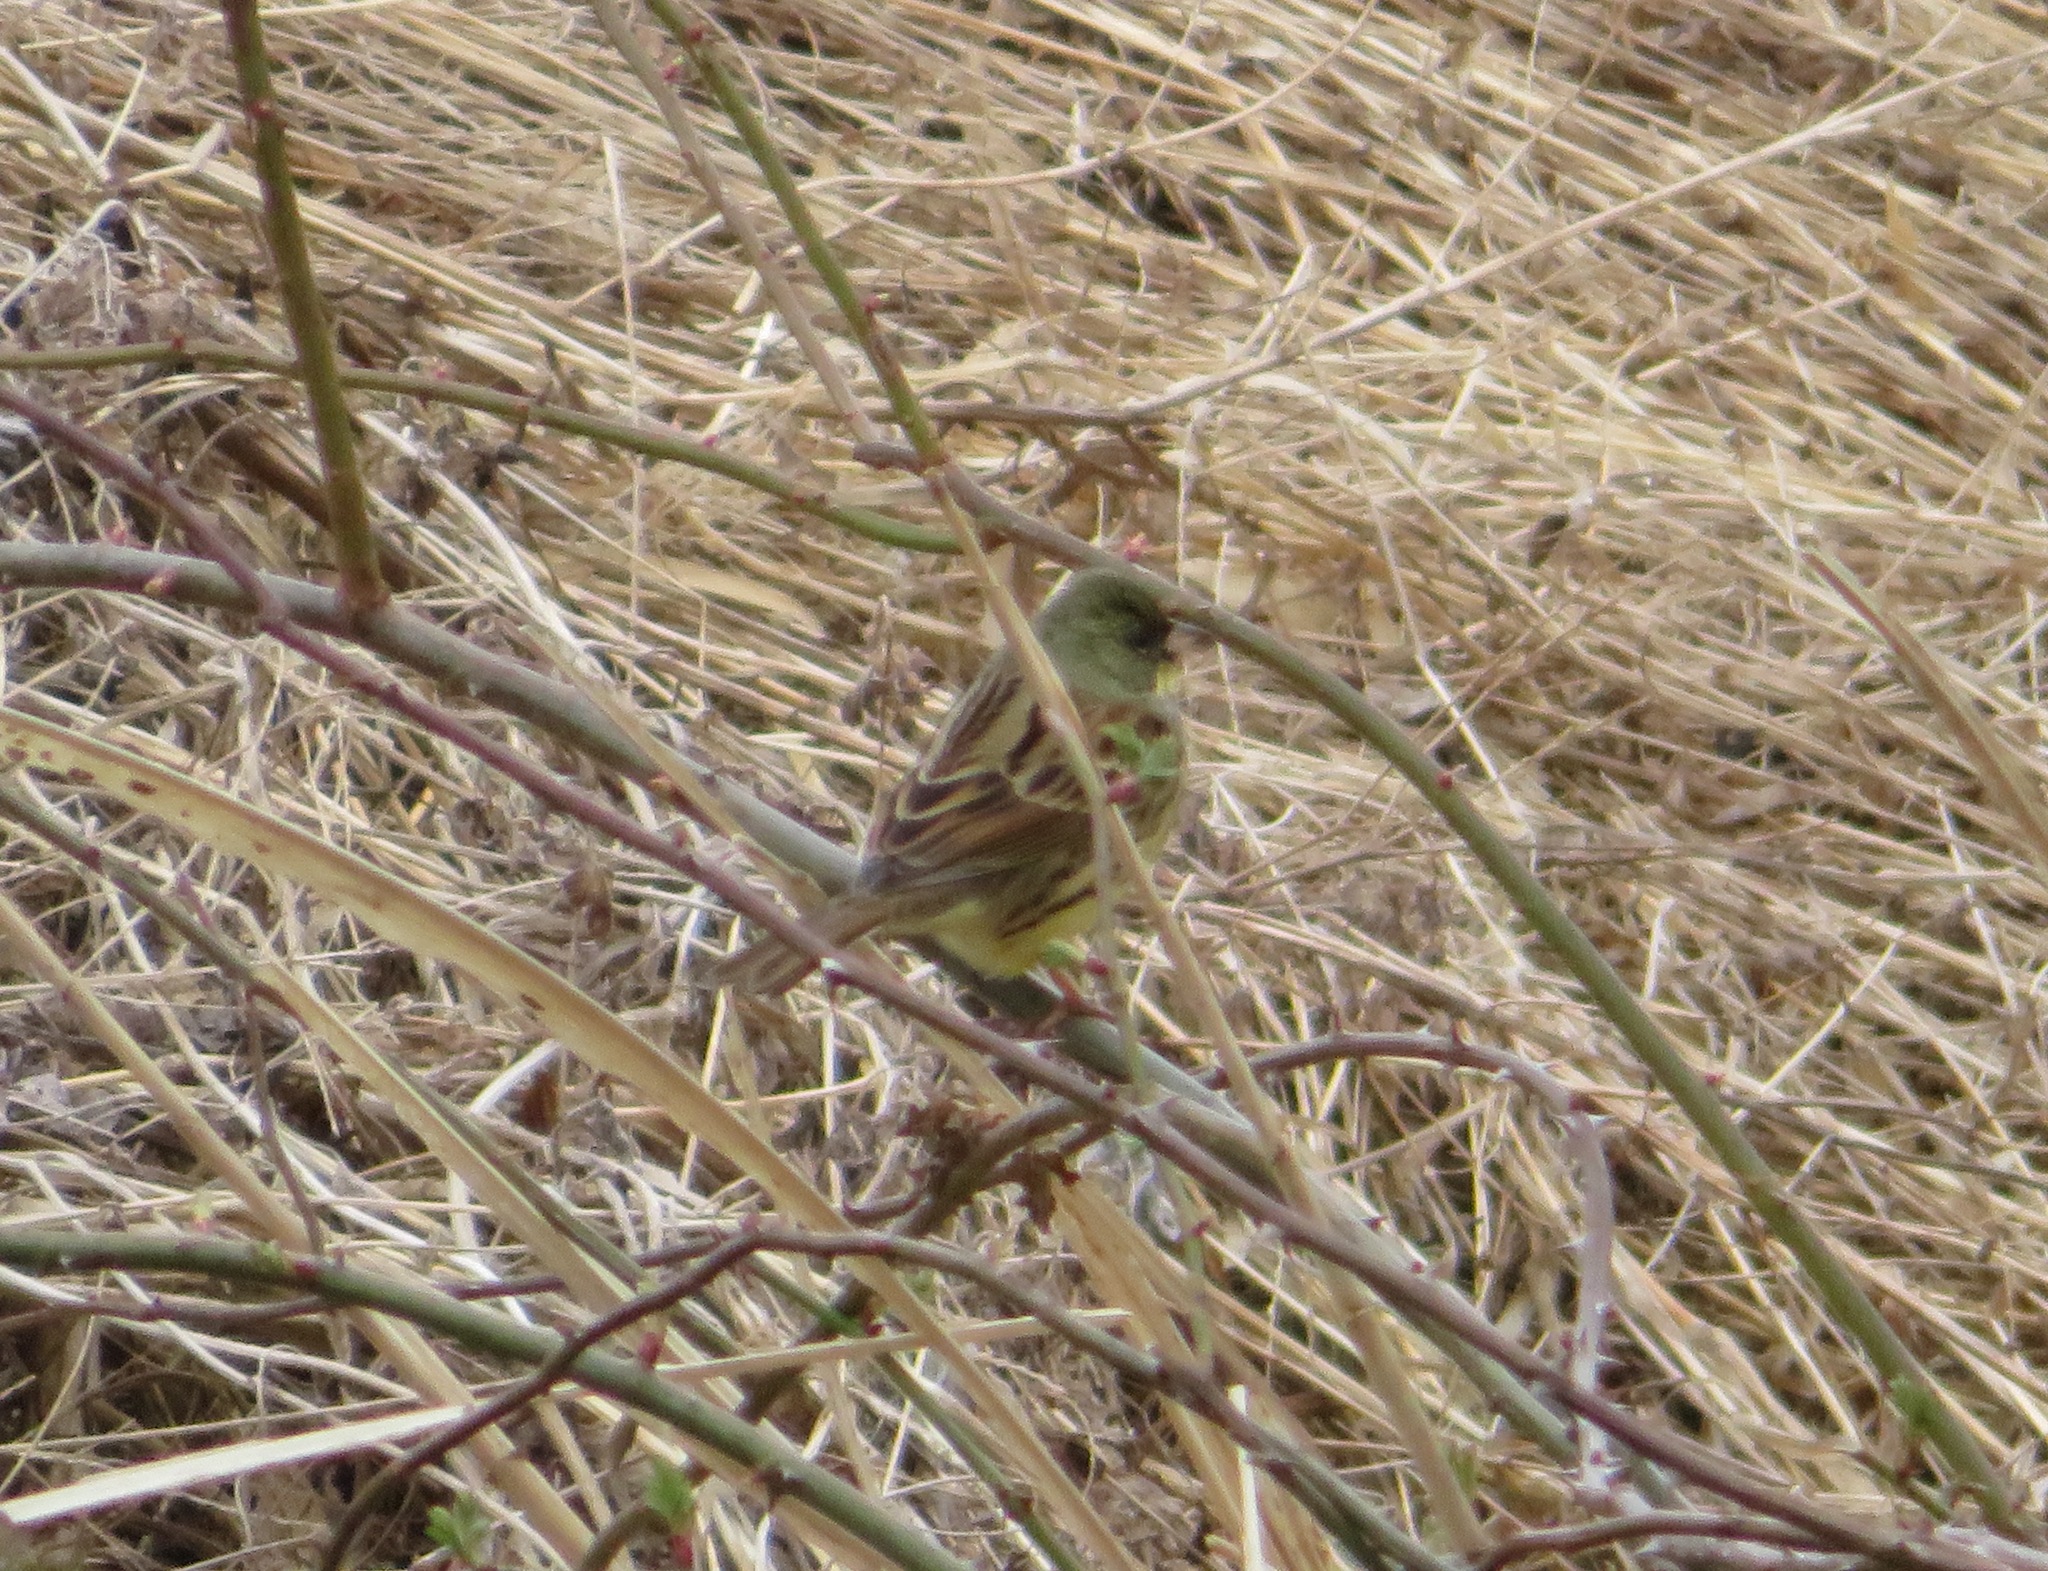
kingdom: Animalia
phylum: Chordata
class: Aves
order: Passeriformes
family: Emberizidae
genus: Emberiza
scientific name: Emberiza personata
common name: Masked bunting
